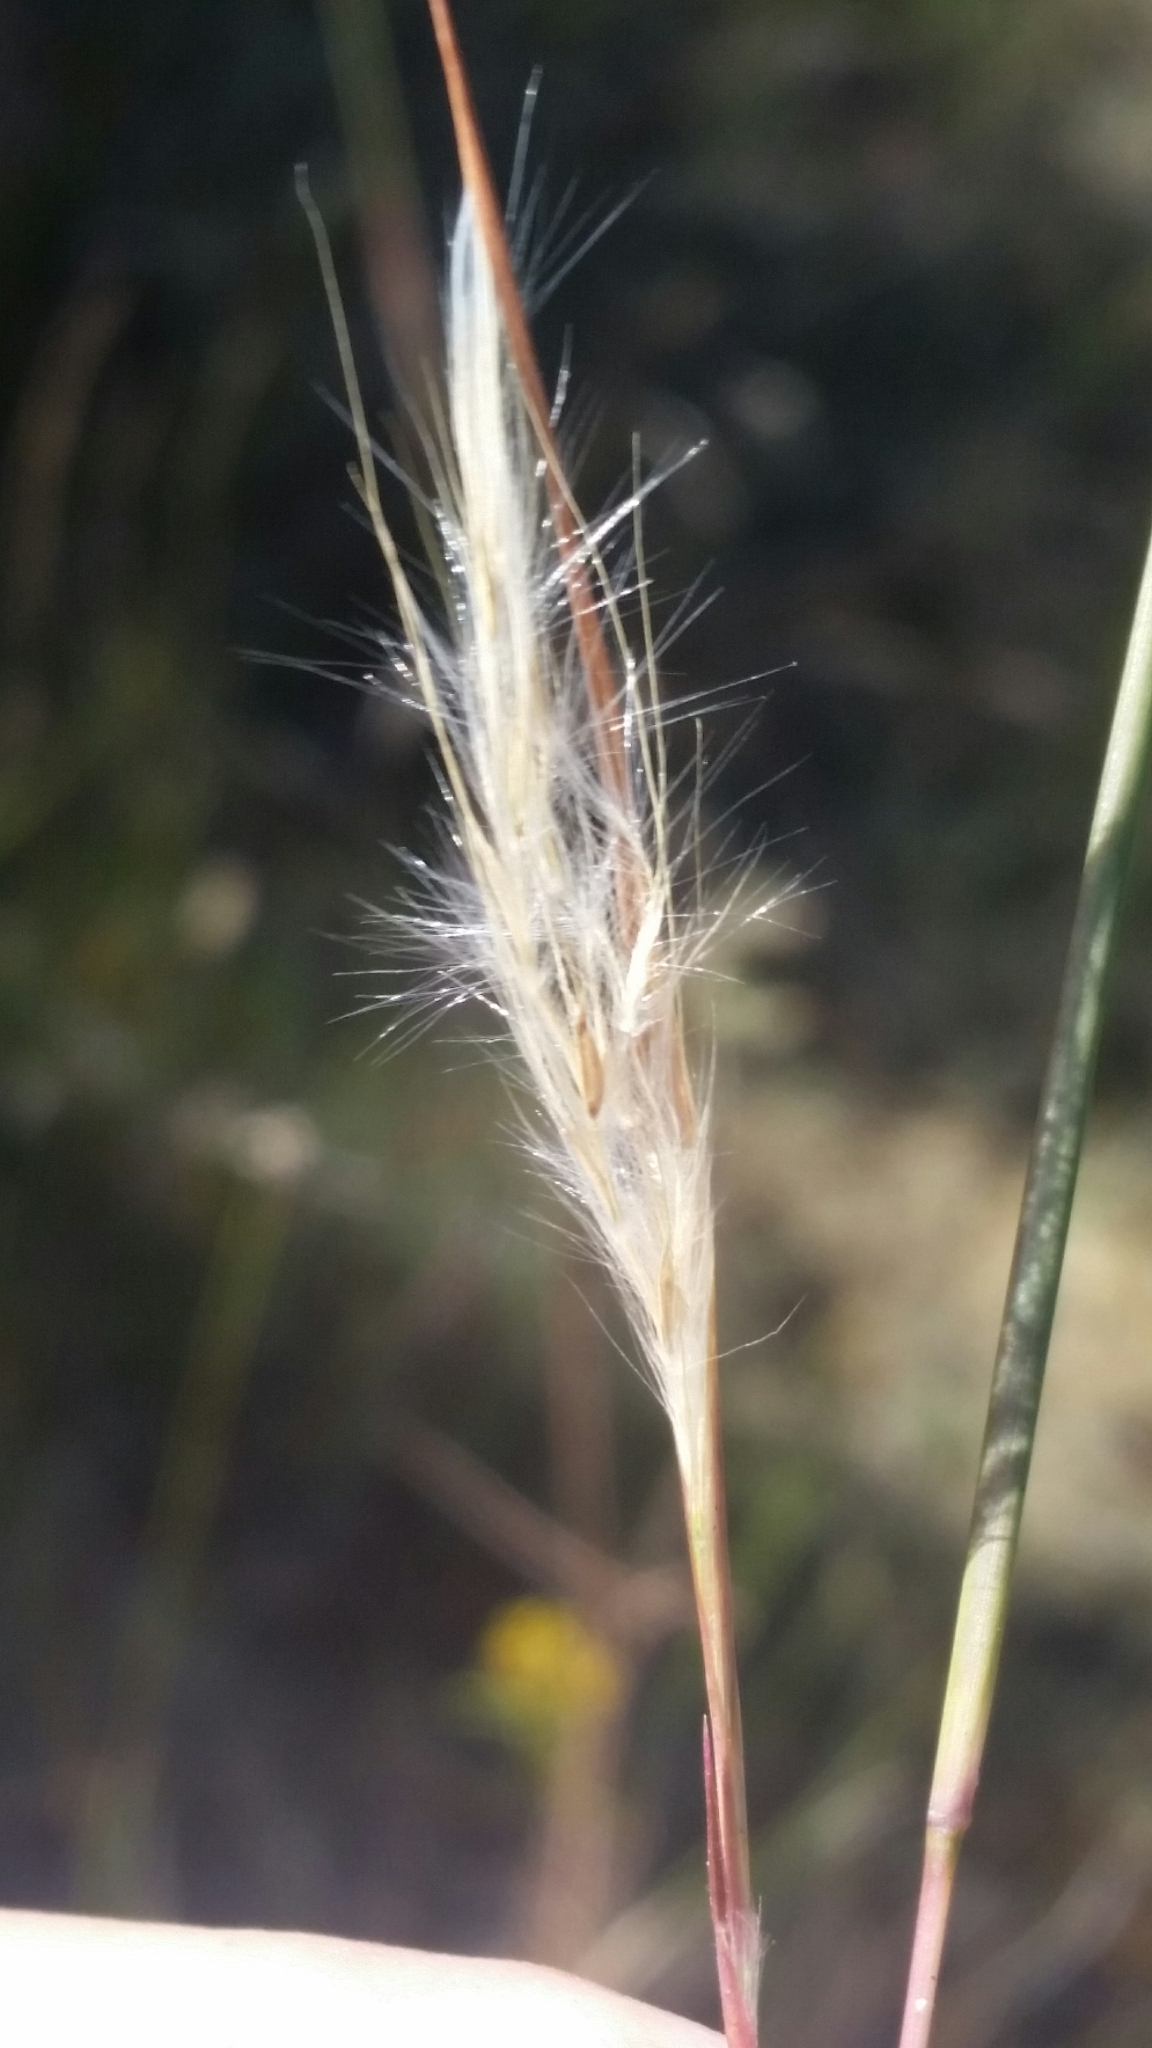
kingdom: Plantae
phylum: Tracheophyta
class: Liliopsida
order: Poales
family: Poaceae
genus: Andropogon
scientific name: Andropogon virginicus
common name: Broomsedge bluestem
